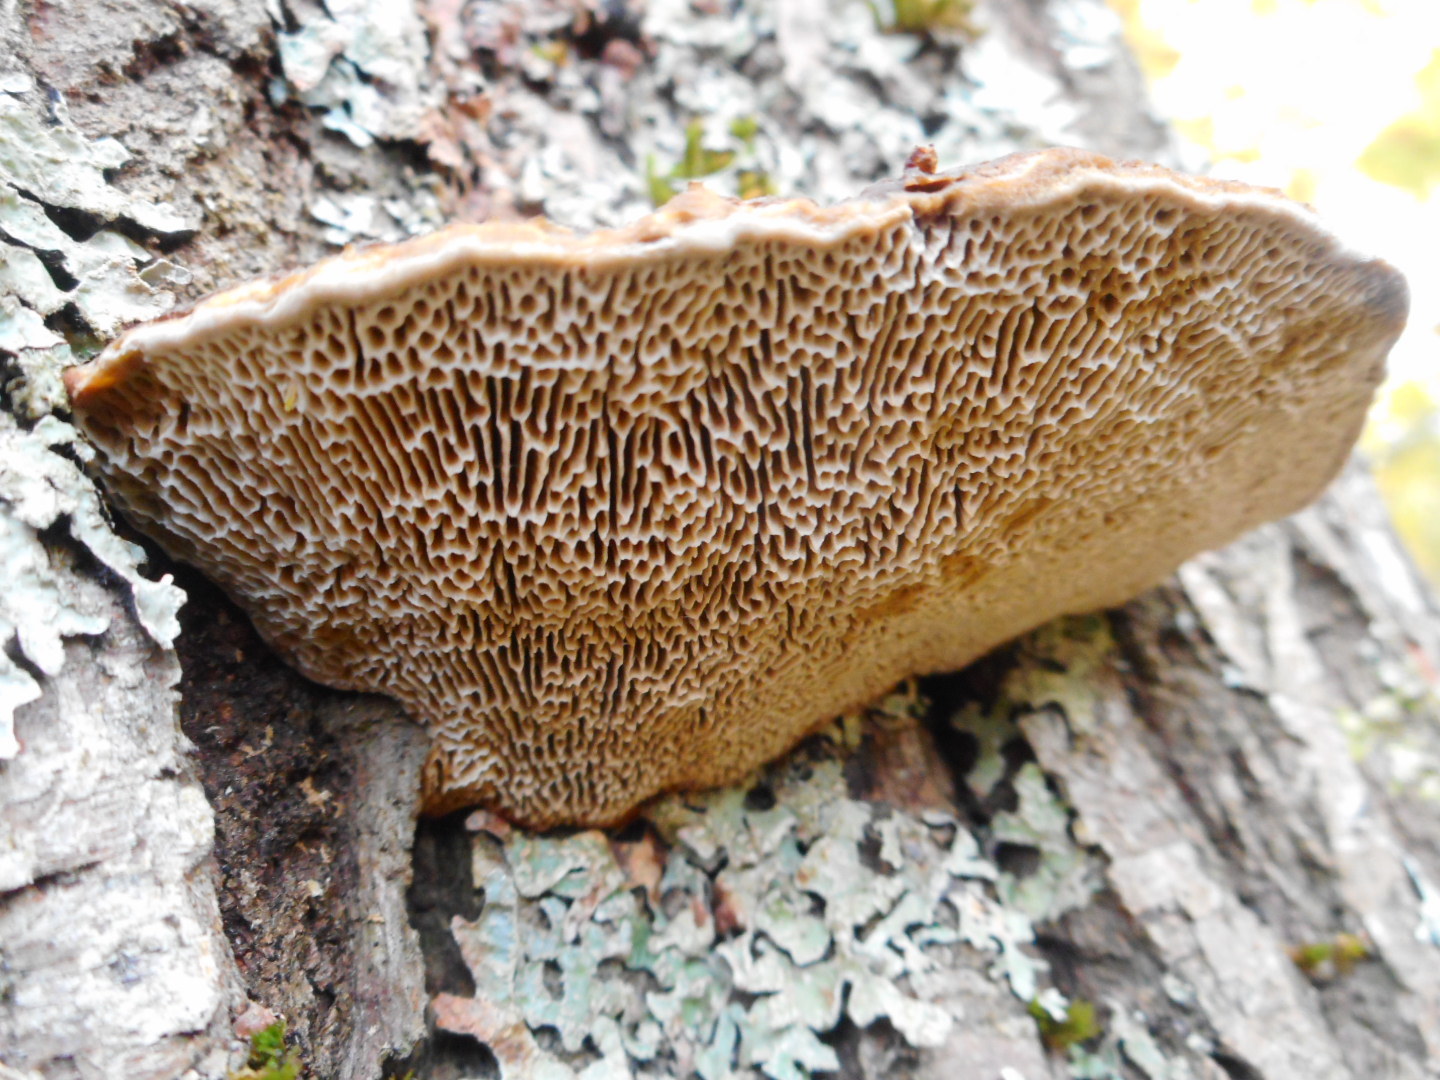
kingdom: Fungi
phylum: Basidiomycota
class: Agaricomycetes
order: Polyporales
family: Polyporaceae
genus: Daedaleopsis
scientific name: Daedaleopsis confragosa
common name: Blushing bracket
